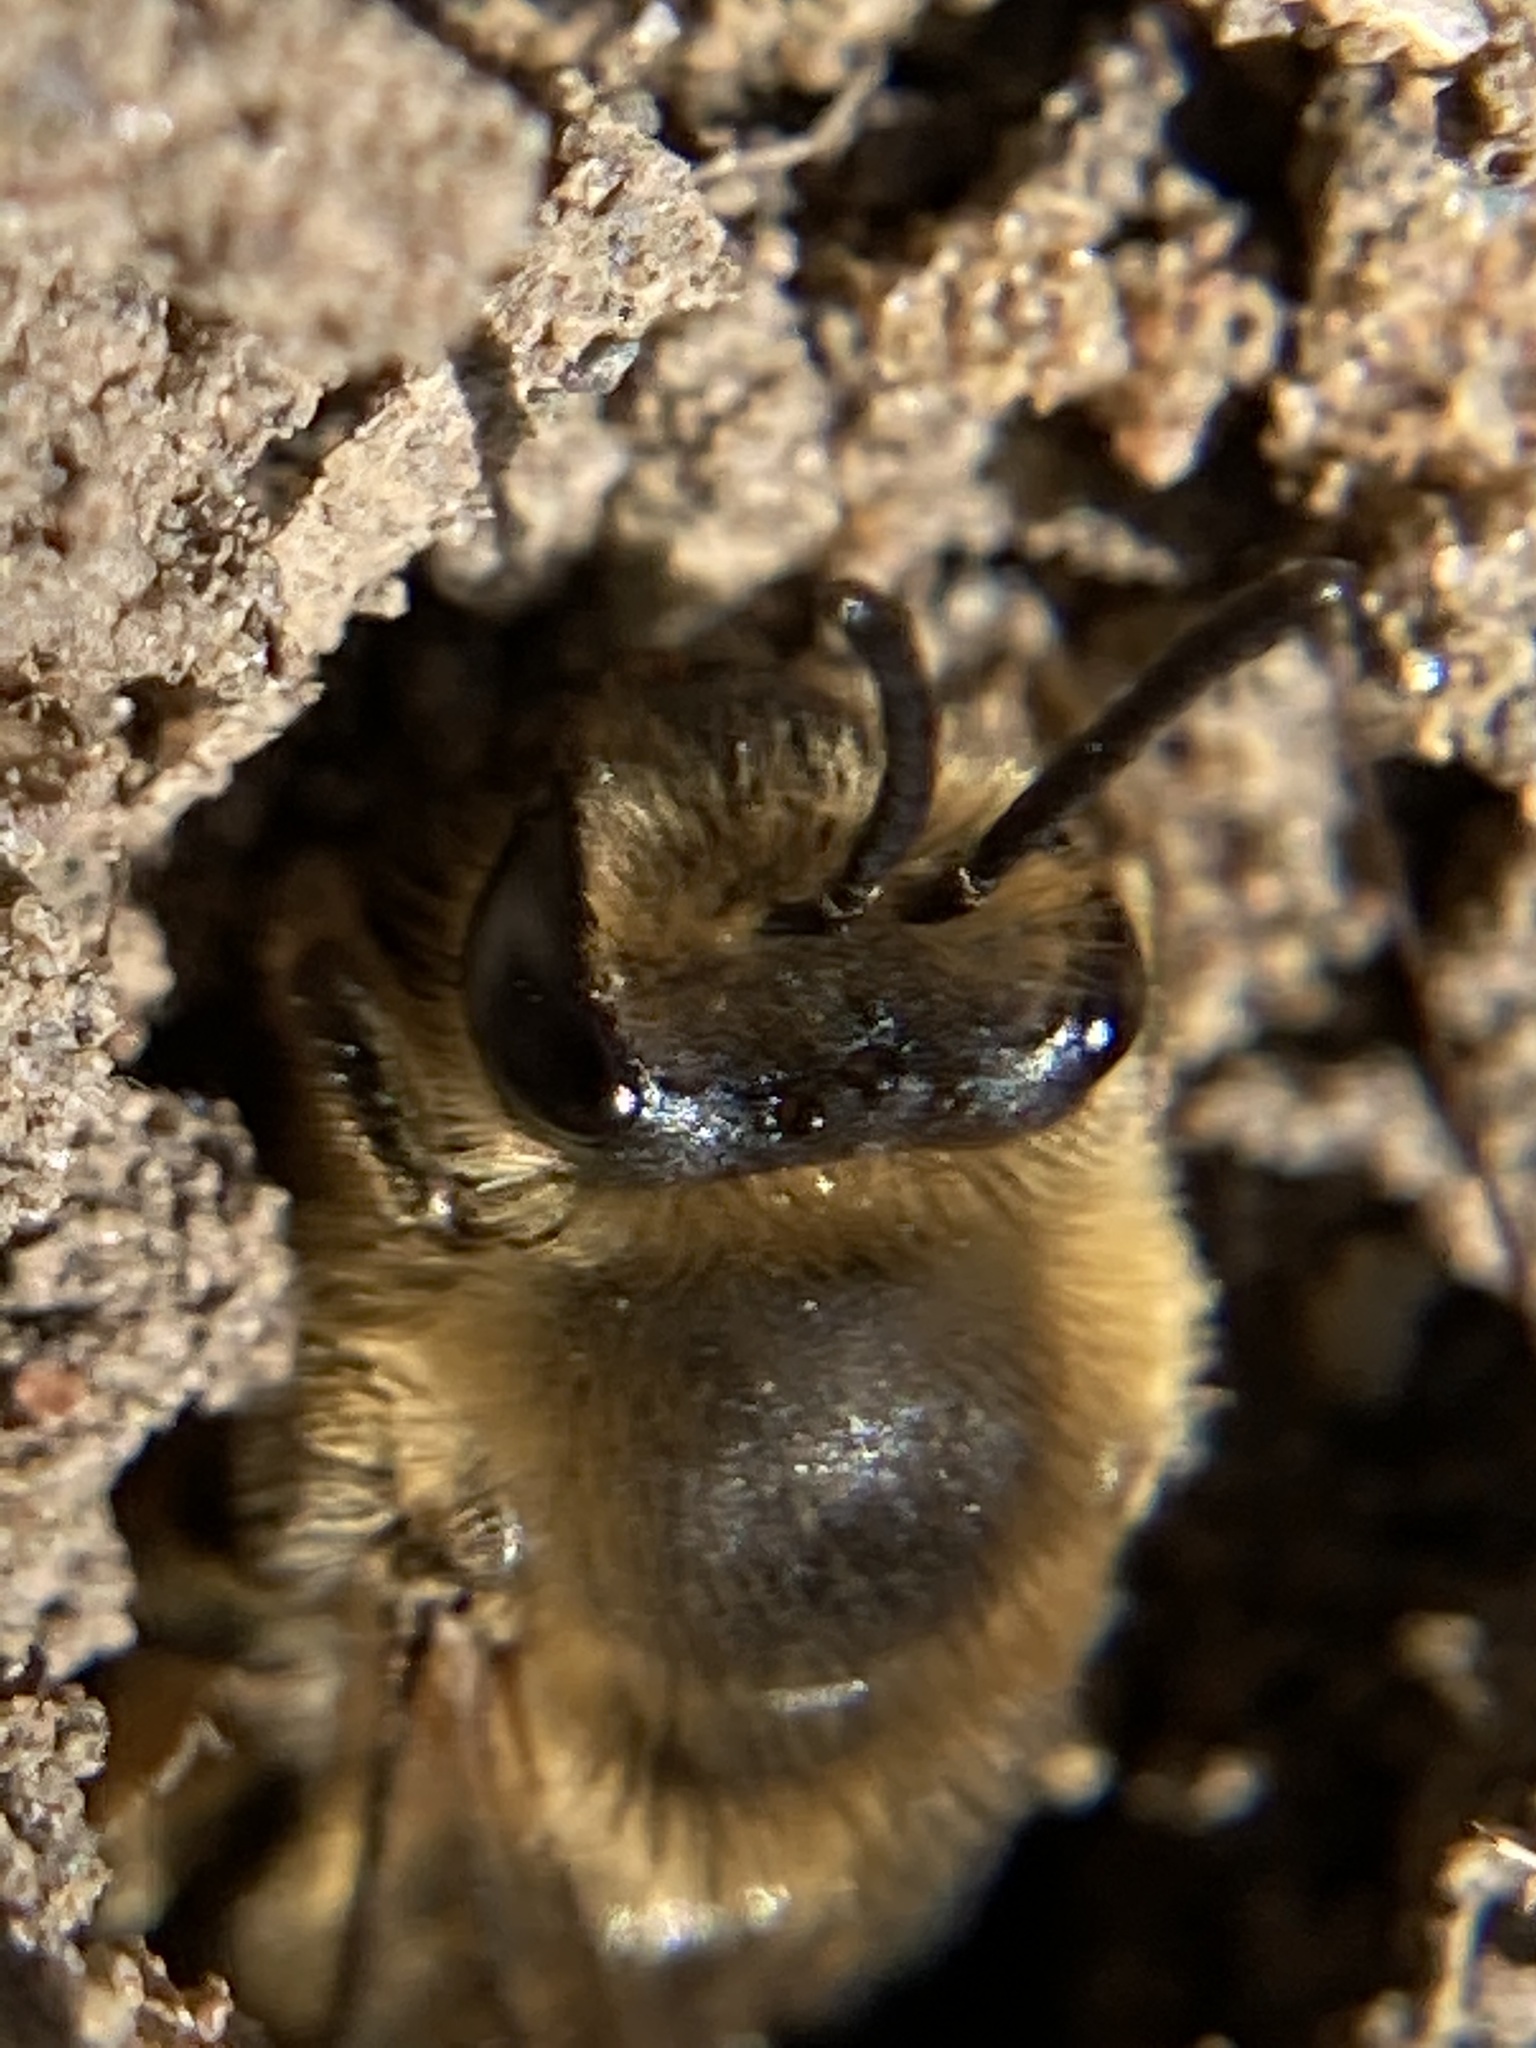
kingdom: Animalia
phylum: Arthropoda
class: Insecta
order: Hymenoptera
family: Colletidae
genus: Colletes
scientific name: Colletes inaequalis
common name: Unequal cellophane bee
